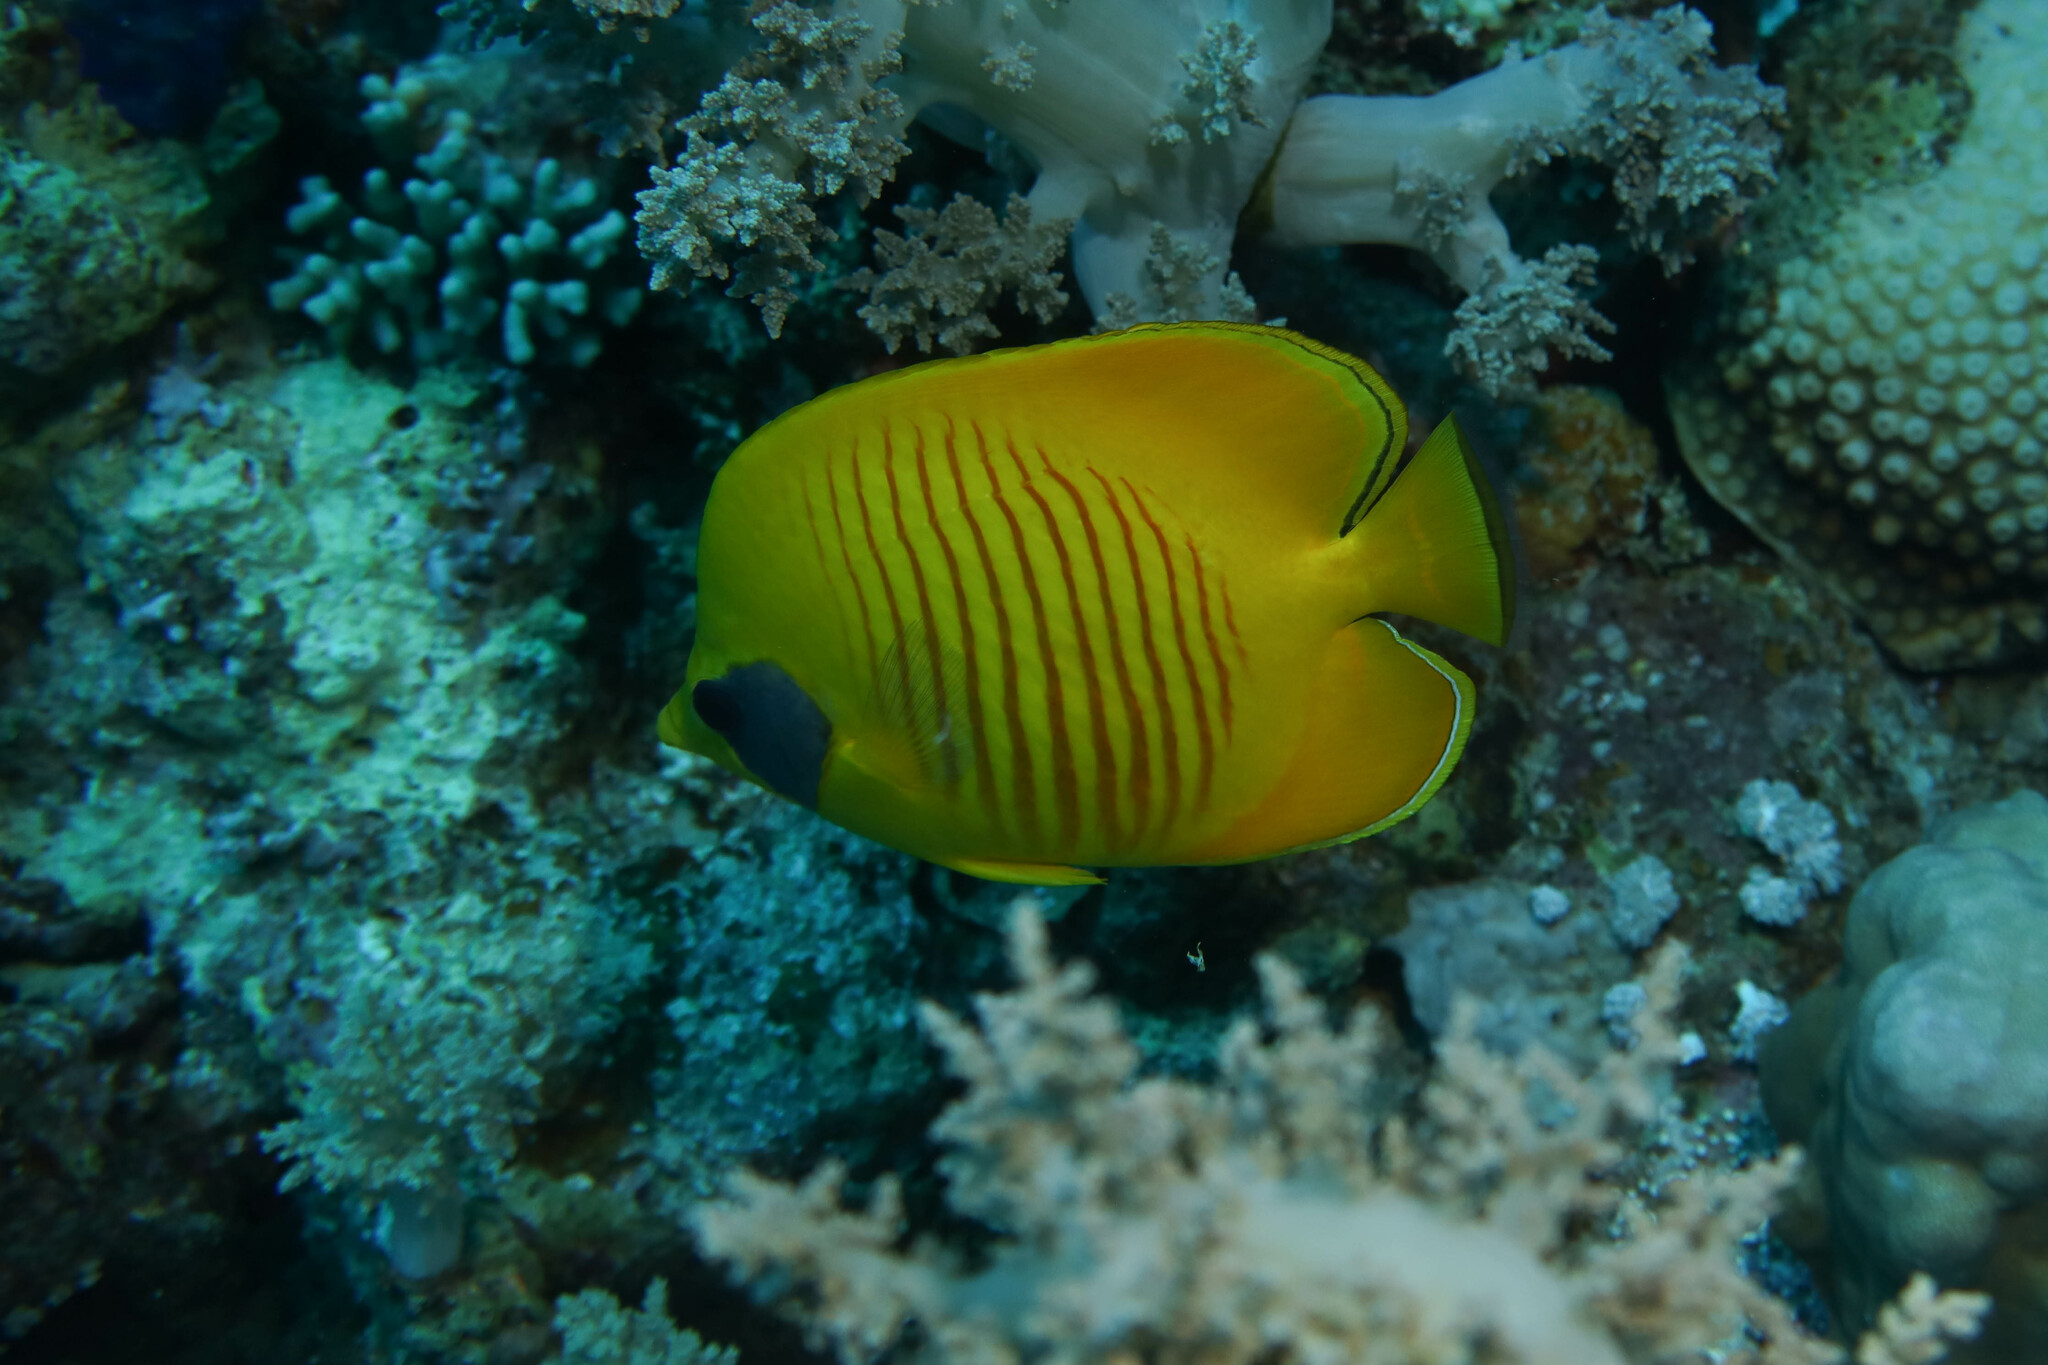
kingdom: Animalia
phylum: Chordata
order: Perciformes
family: Chaetodontidae
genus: Chaetodon
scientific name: Chaetodon semilarvatus
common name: Golden butterflyfish
